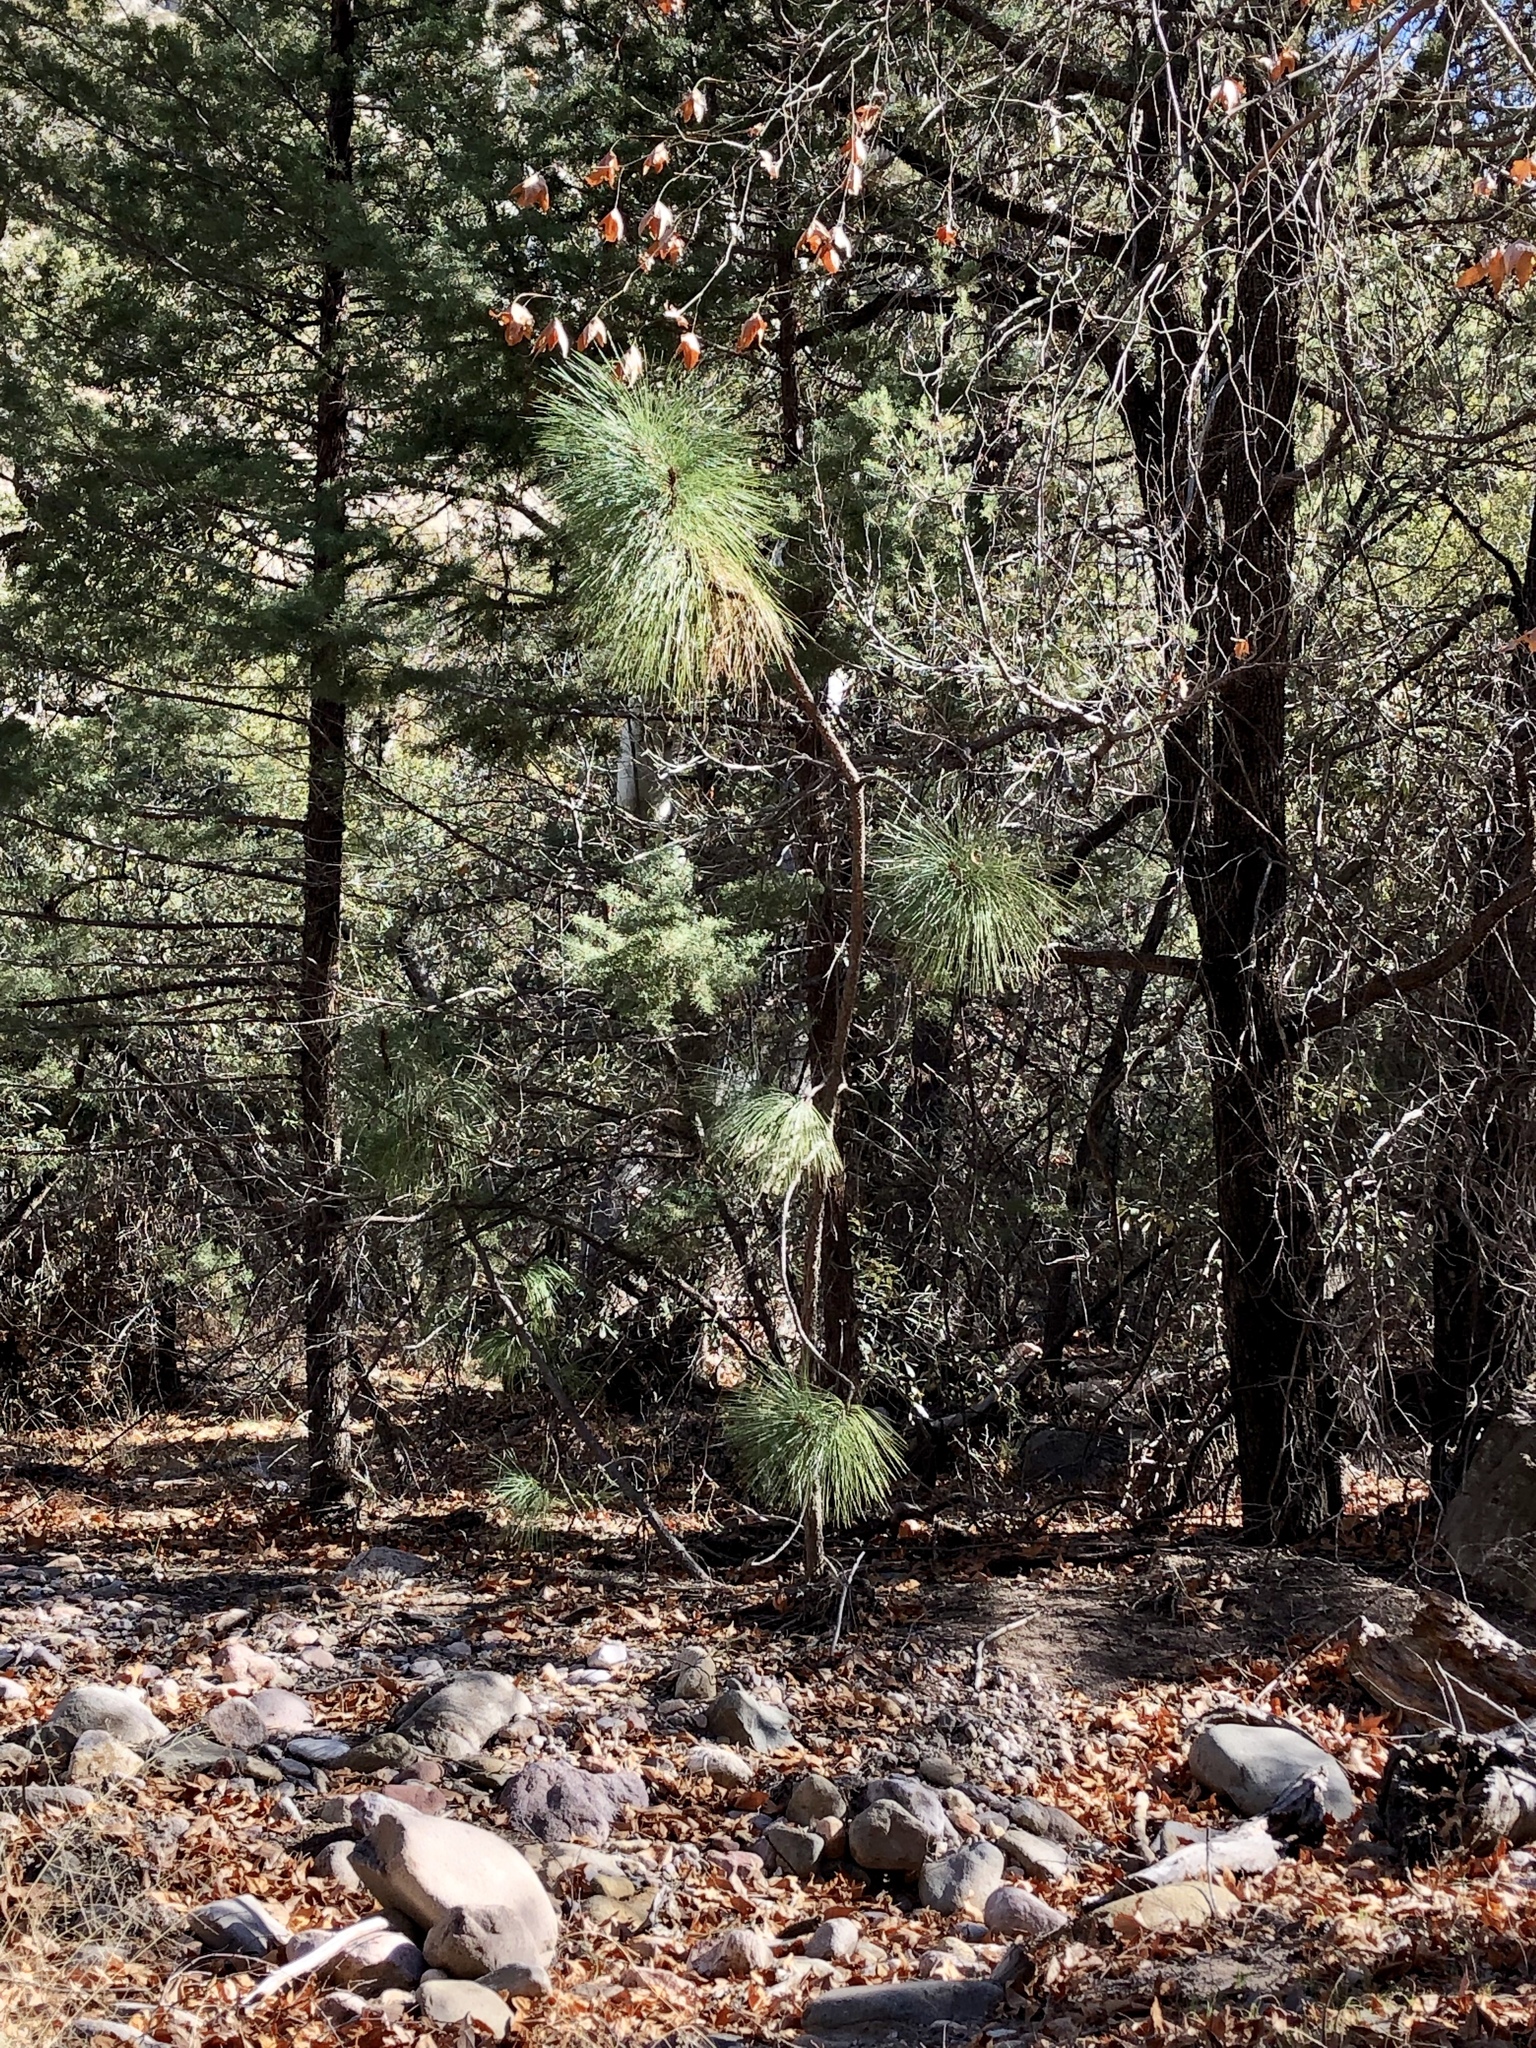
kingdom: Plantae
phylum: Tracheophyta
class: Pinopsida
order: Pinales
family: Pinaceae
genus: Pinus
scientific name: Pinus engelmannii
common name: Apache pine
